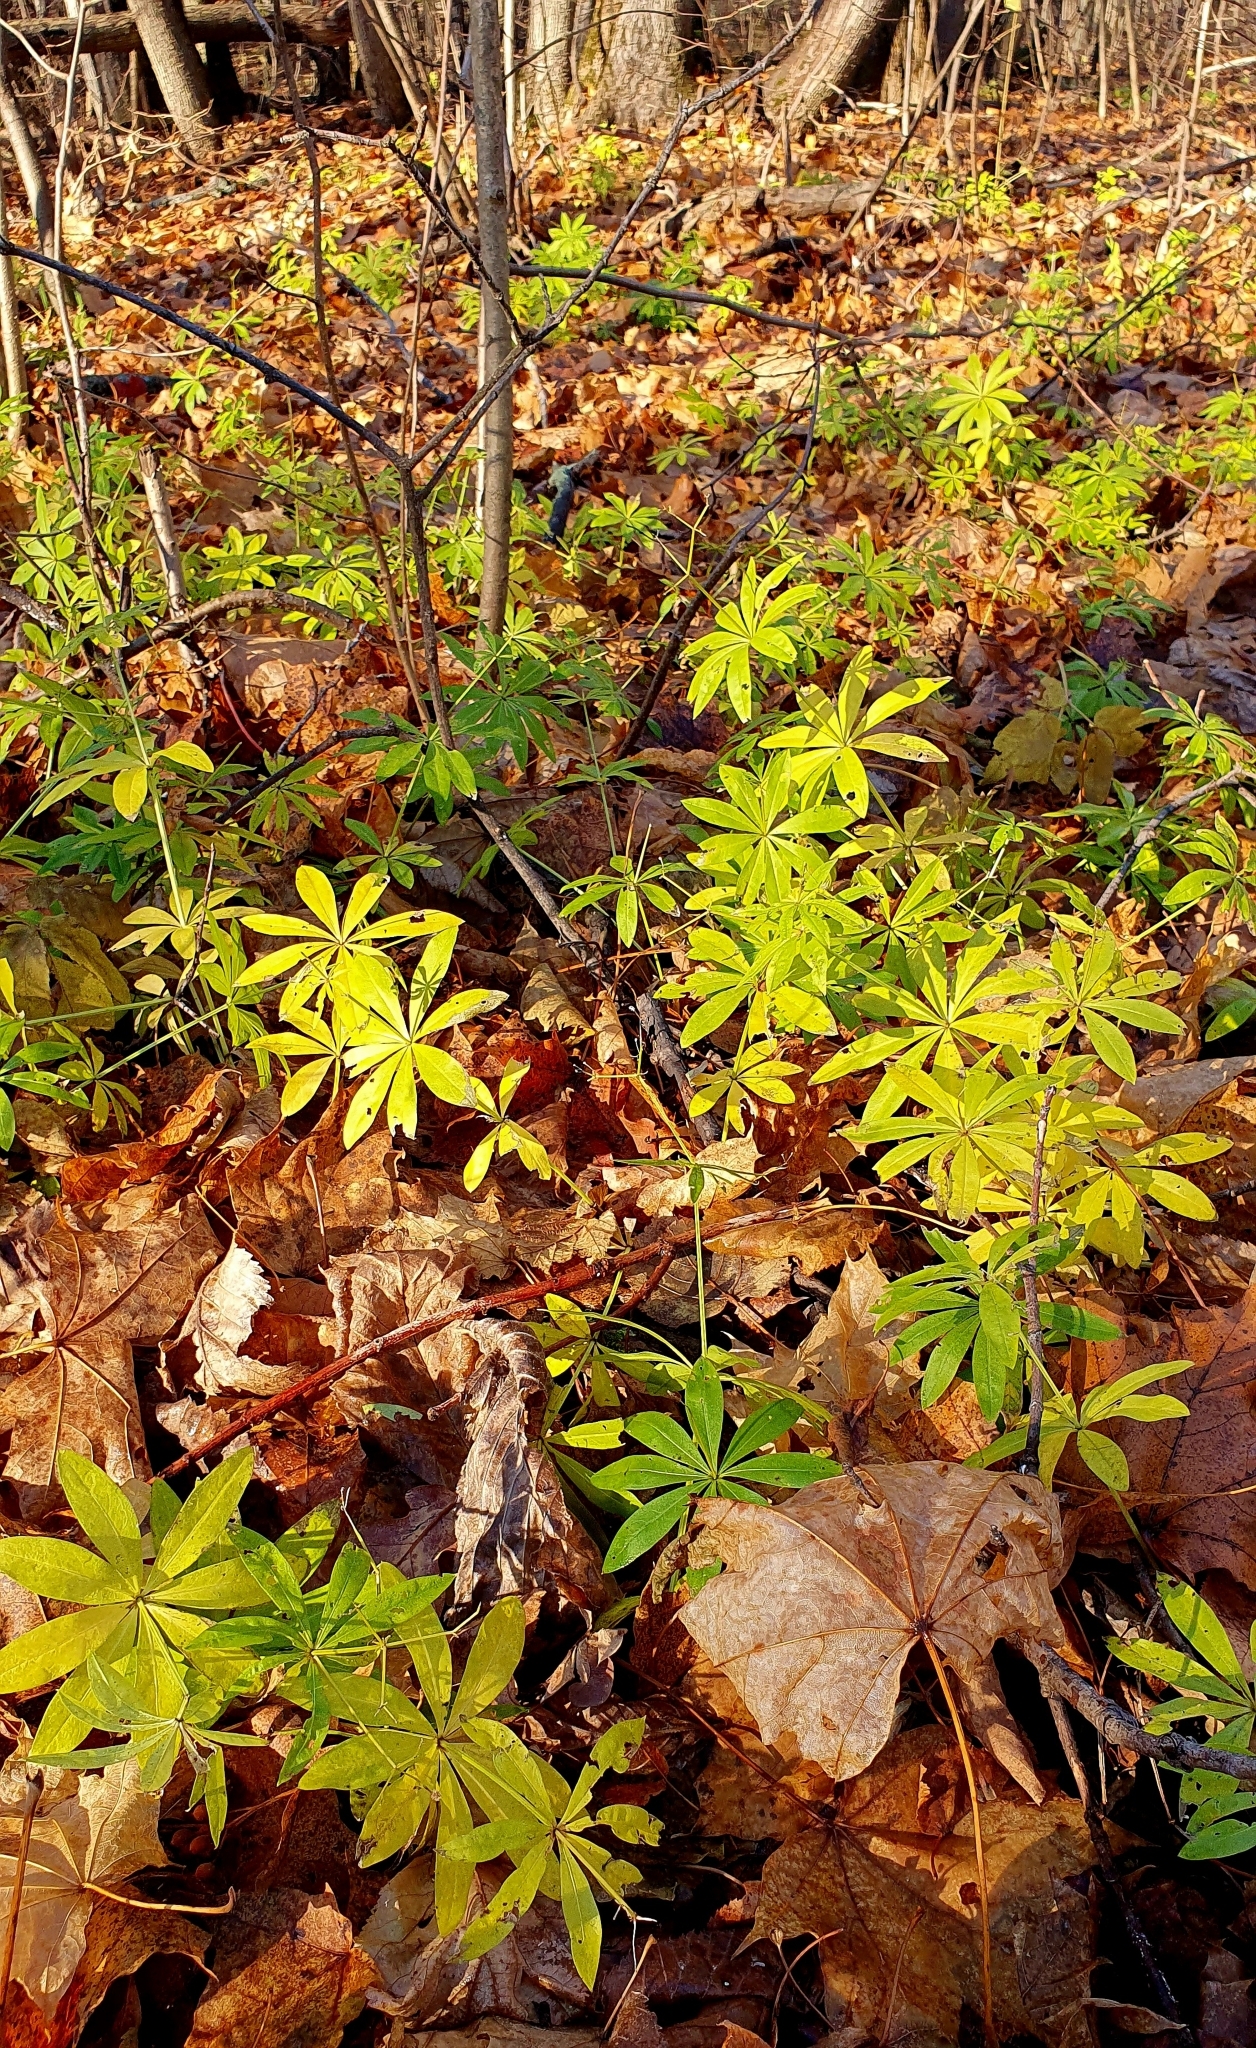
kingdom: Plantae
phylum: Tracheophyta
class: Magnoliopsida
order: Gentianales
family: Rubiaceae
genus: Galium
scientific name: Galium odoratum
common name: Sweet woodruff
